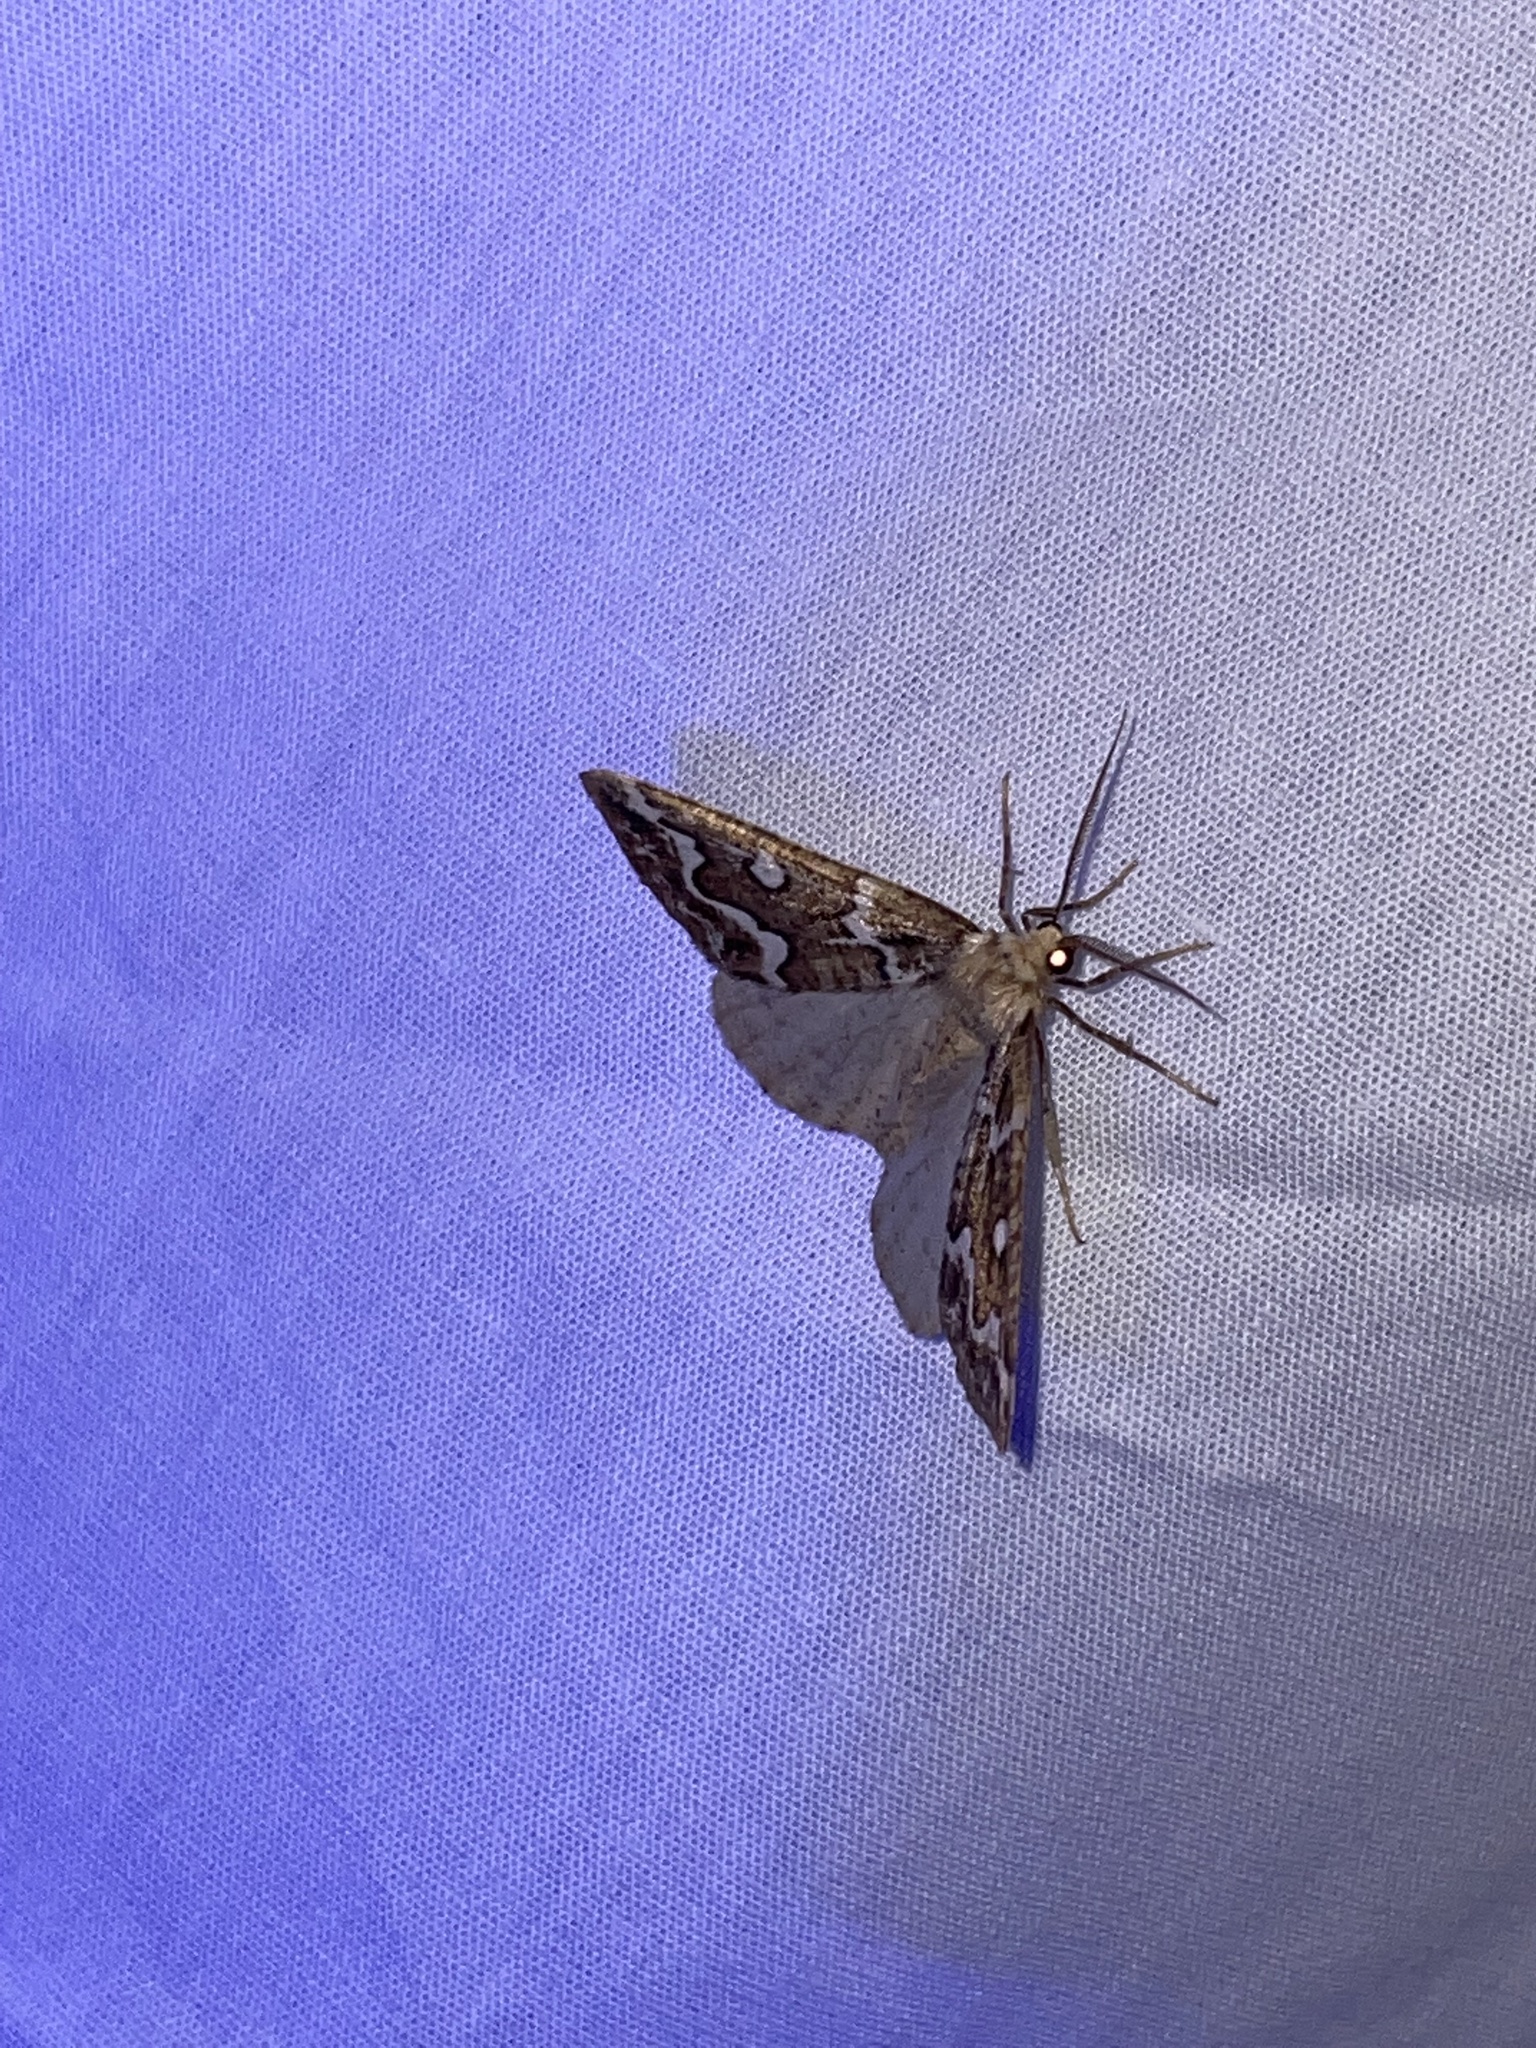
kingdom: Animalia
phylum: Arthropoda
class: Insecta
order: Lepidoptera
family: Geometridae
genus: Caripeta
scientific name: Caripeta divisata
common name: Gray spruce looper
